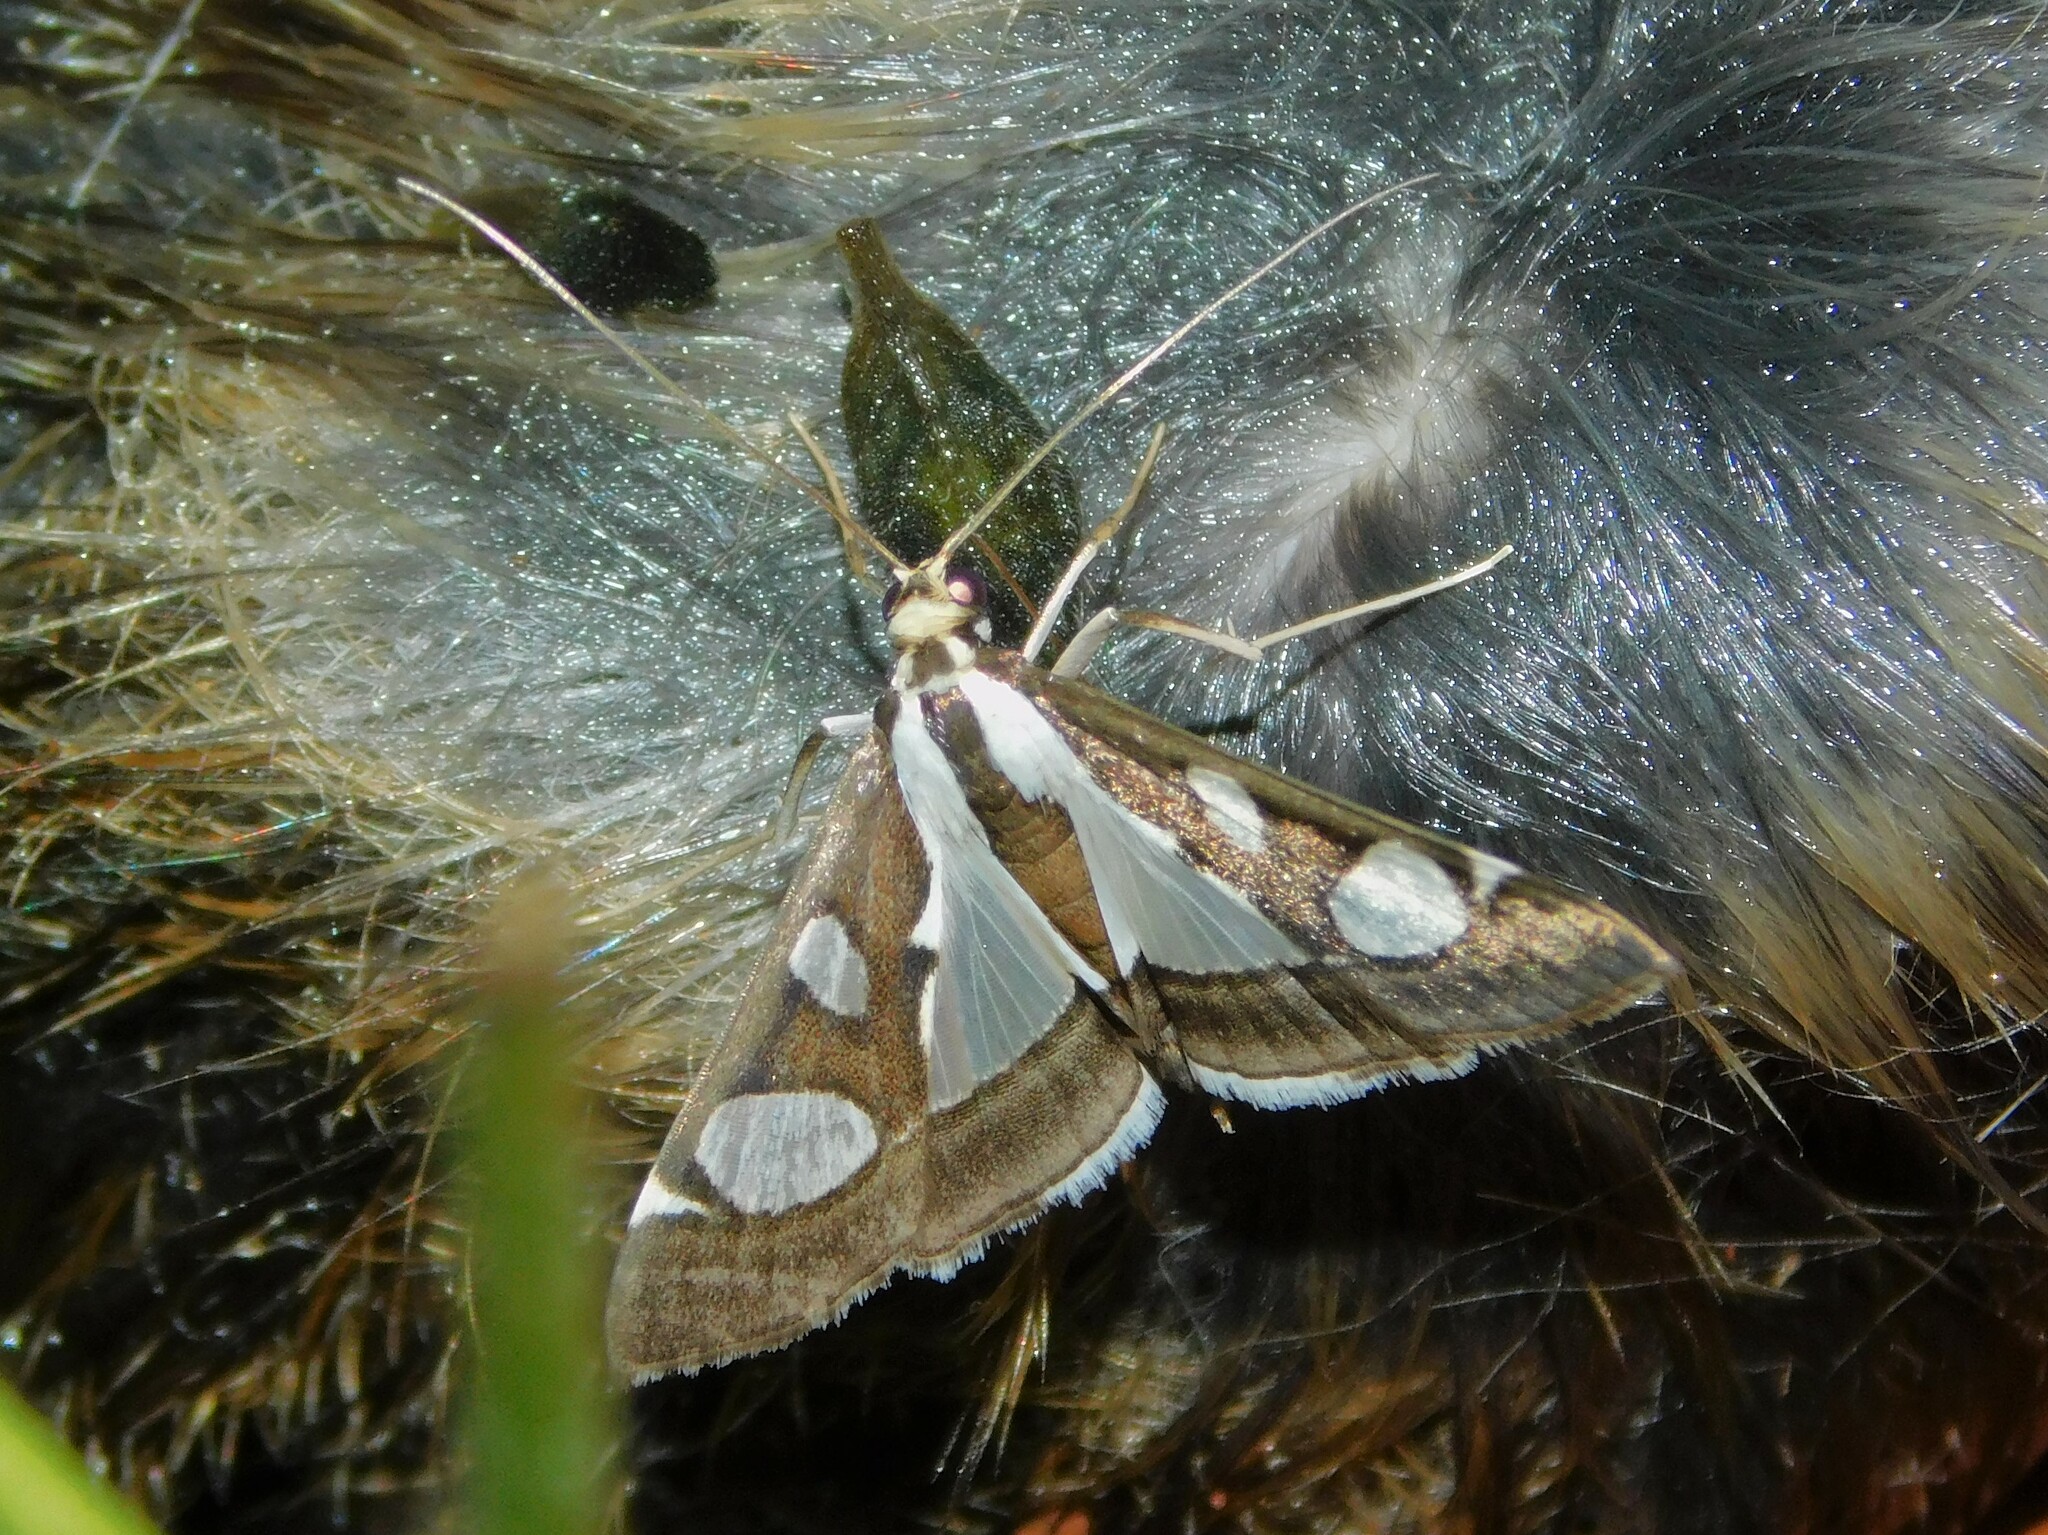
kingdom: Animalia
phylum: Arthropoda
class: Insecta
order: Lepidoptera
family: Crambidae
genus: Glyphodes
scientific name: Glyphodes bicolor
